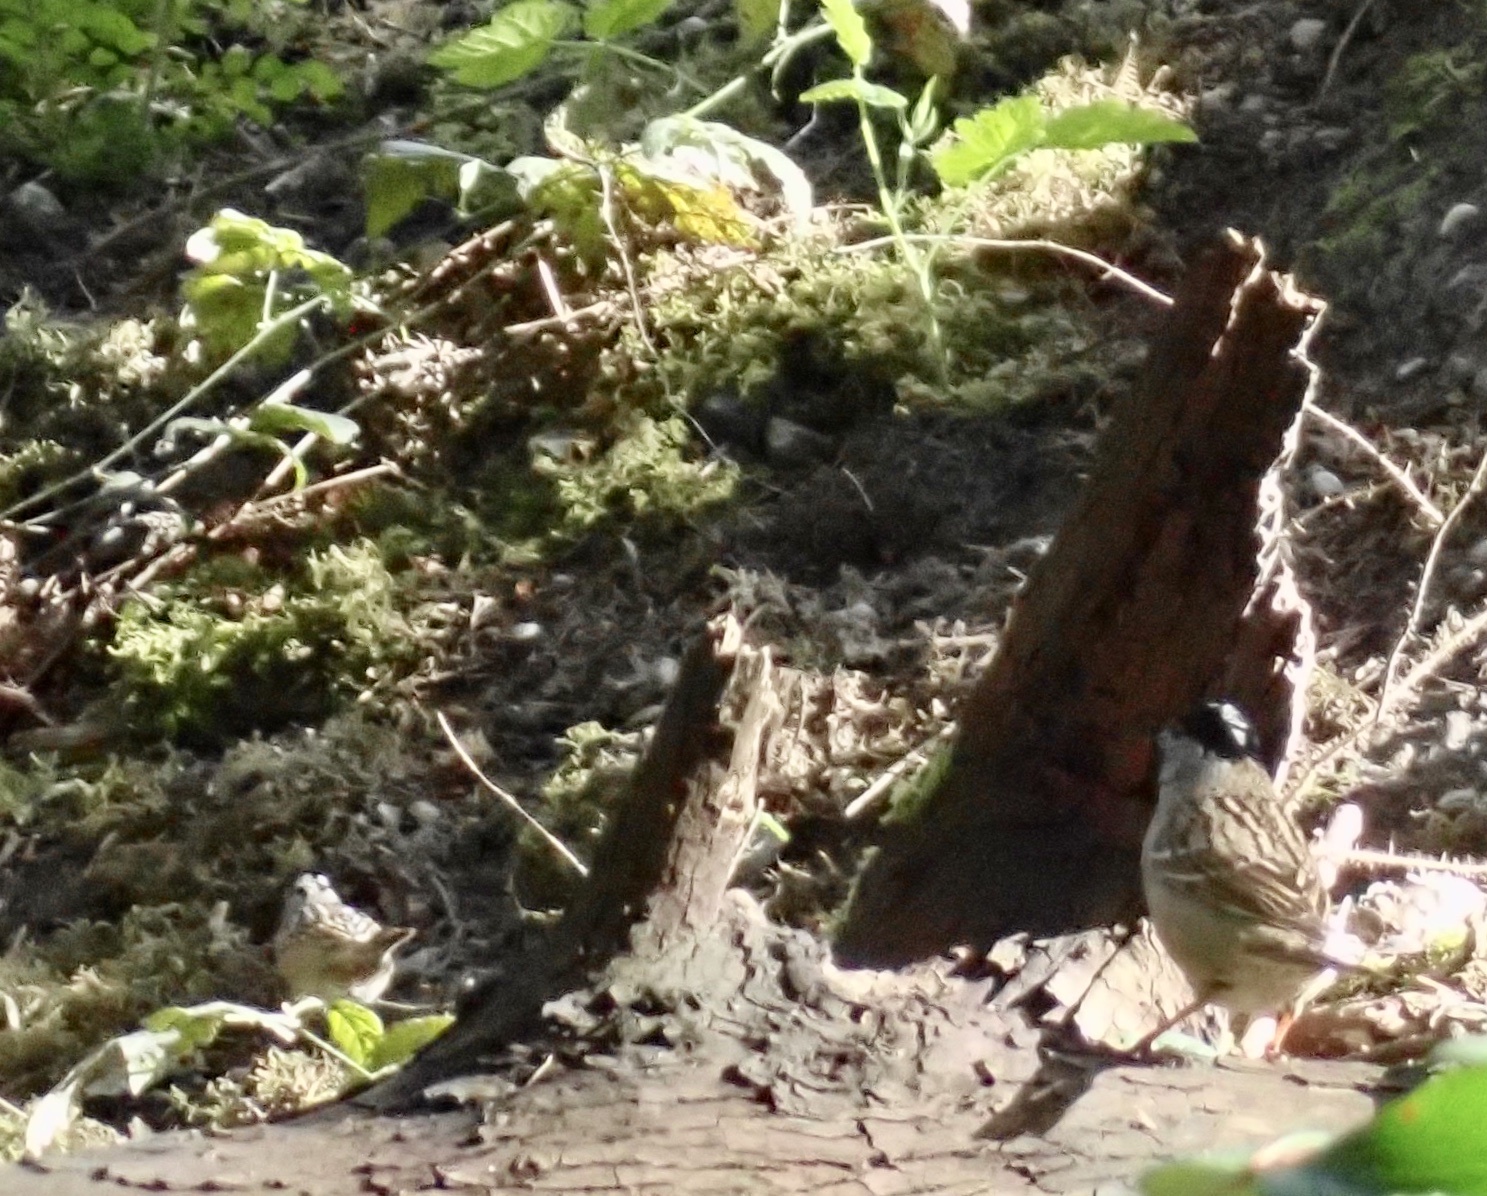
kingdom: Animalia
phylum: Chordata
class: Aves
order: Passeriformes
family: Passerellidae
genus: Zonotrichia
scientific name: Zonotrichia leucophrys
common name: White-crowned sparrow
